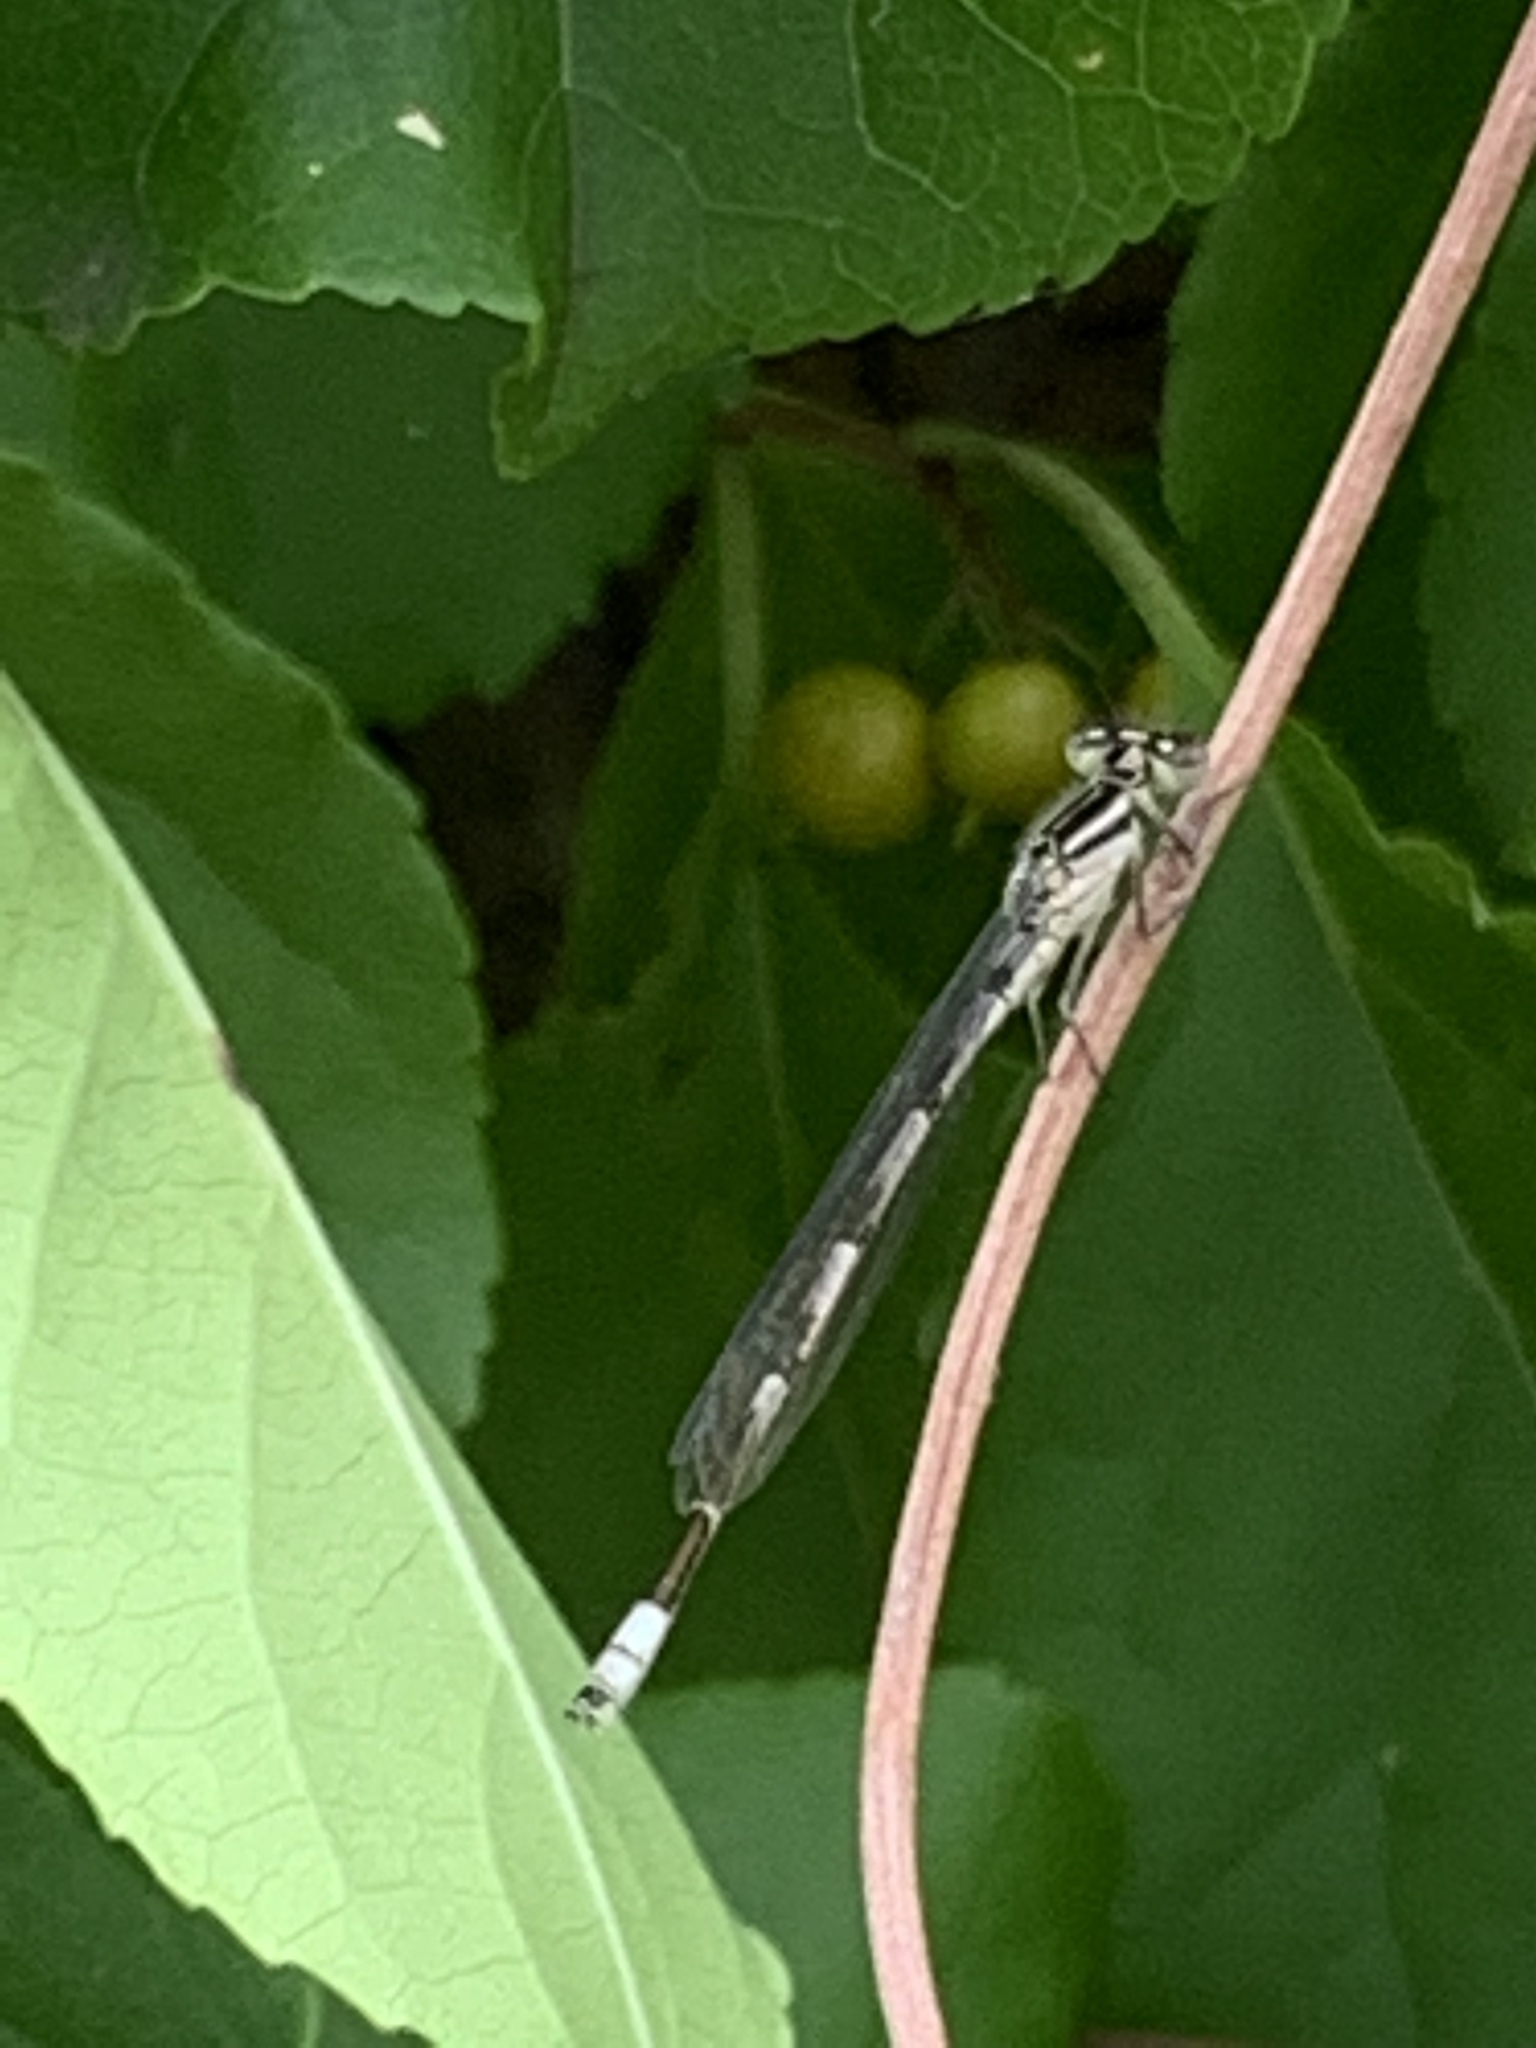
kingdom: Animalia
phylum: Arthropoda
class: Insecta
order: Odonata
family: Coenagrionidae
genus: Enallagma
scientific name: Enallagma durum
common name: Big bluet
